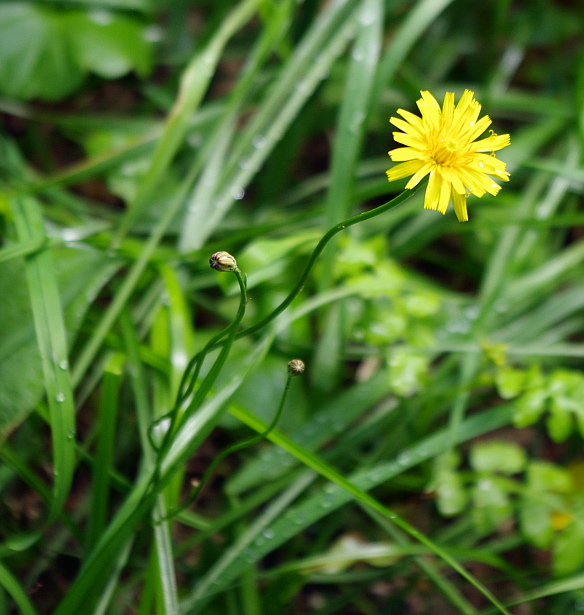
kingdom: Plantae
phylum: Tracheophyta
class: Magnoliopsida
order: Asterales
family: Asteraceae
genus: Scorzoneroides
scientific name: Scorzoneroides autumnalis
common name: Autumn hawkbit
